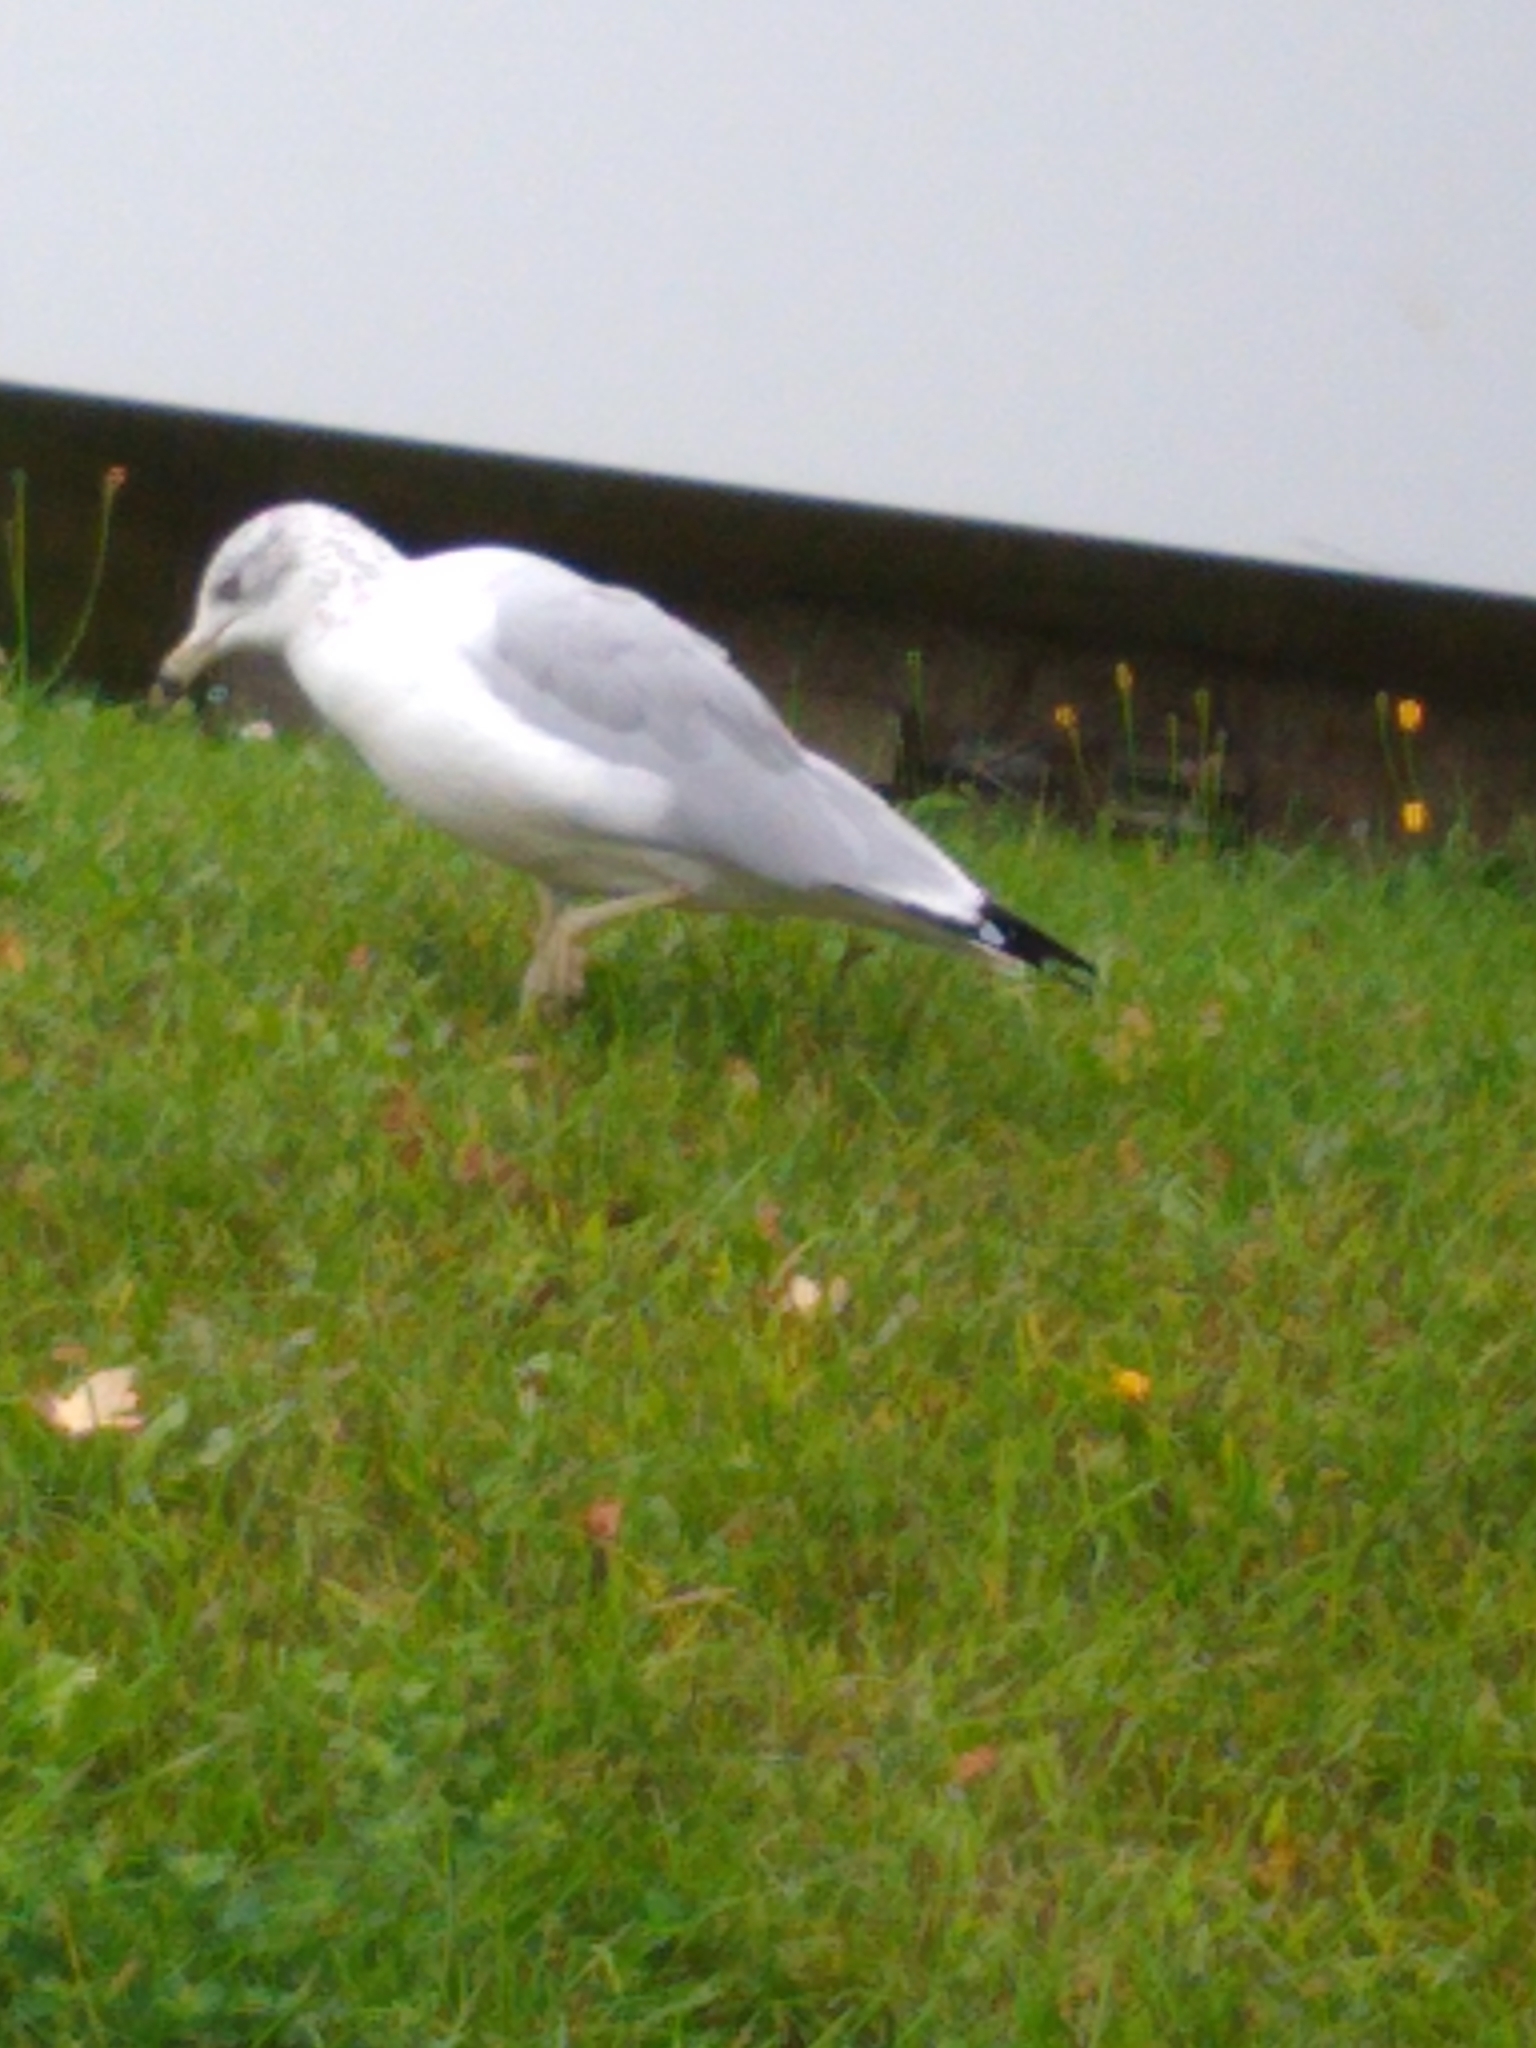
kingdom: Animalia
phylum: Chordata
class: Aves
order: Charadriiformes
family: Laridae
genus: Larus
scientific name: Larus delawarensis
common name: Ring-billed gull
